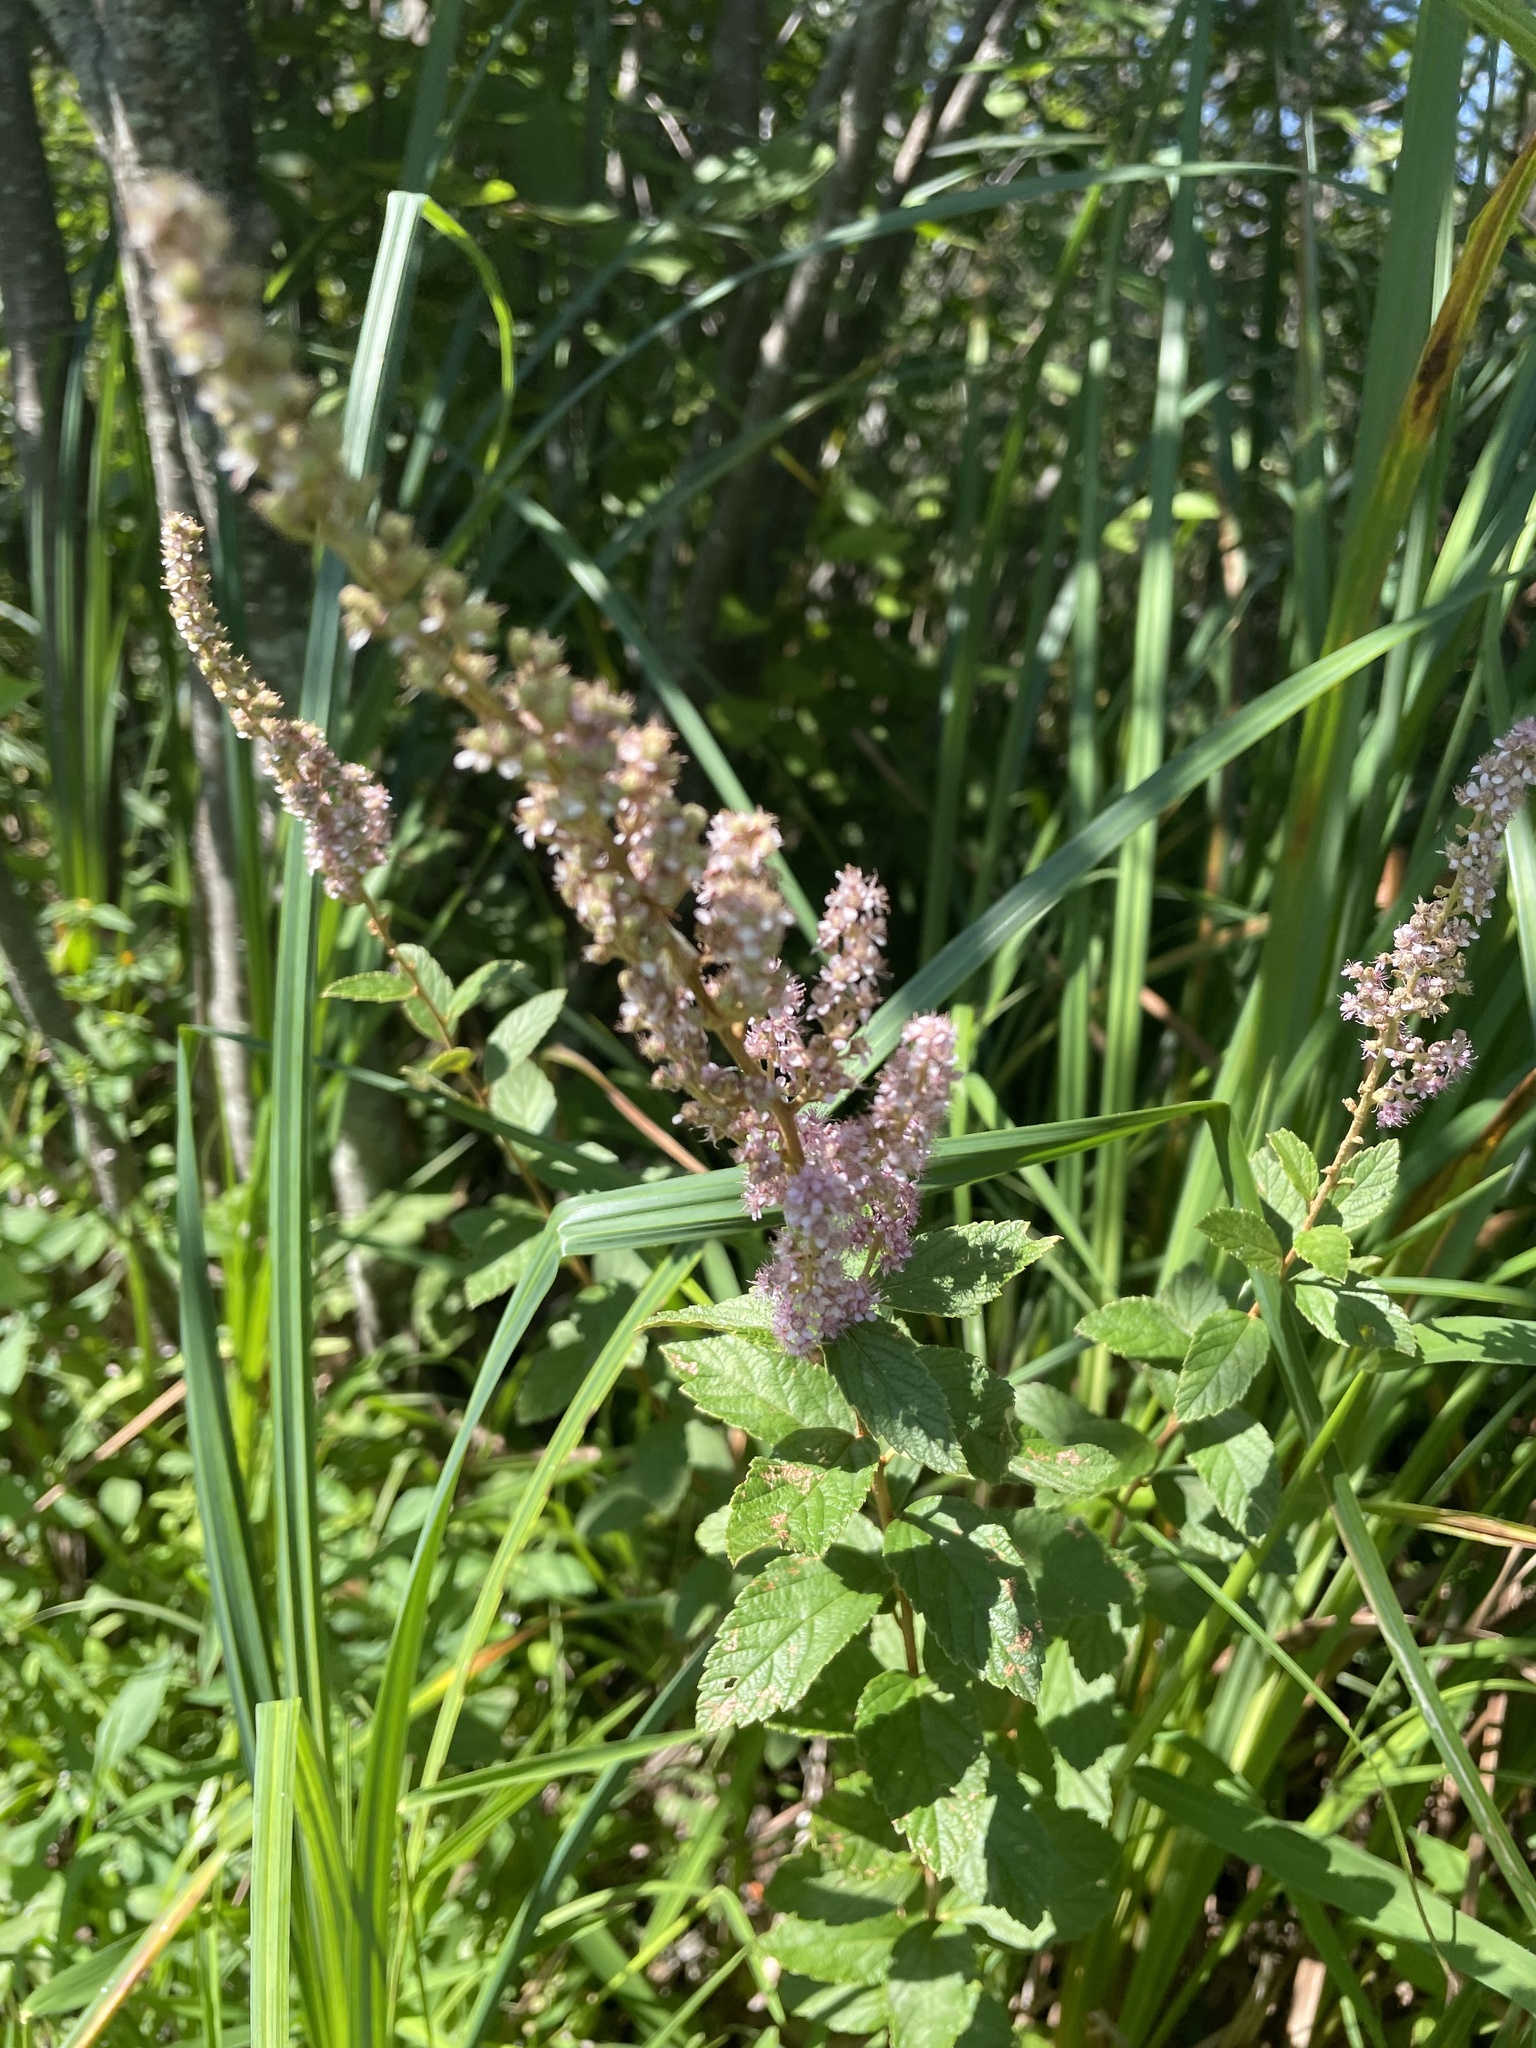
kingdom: Plantae
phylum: Tracheophyta
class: Magnoliopsida
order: Rosales
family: Rosaceae
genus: Spiraea
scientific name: Spiraea tomentosa
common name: Hardhack
